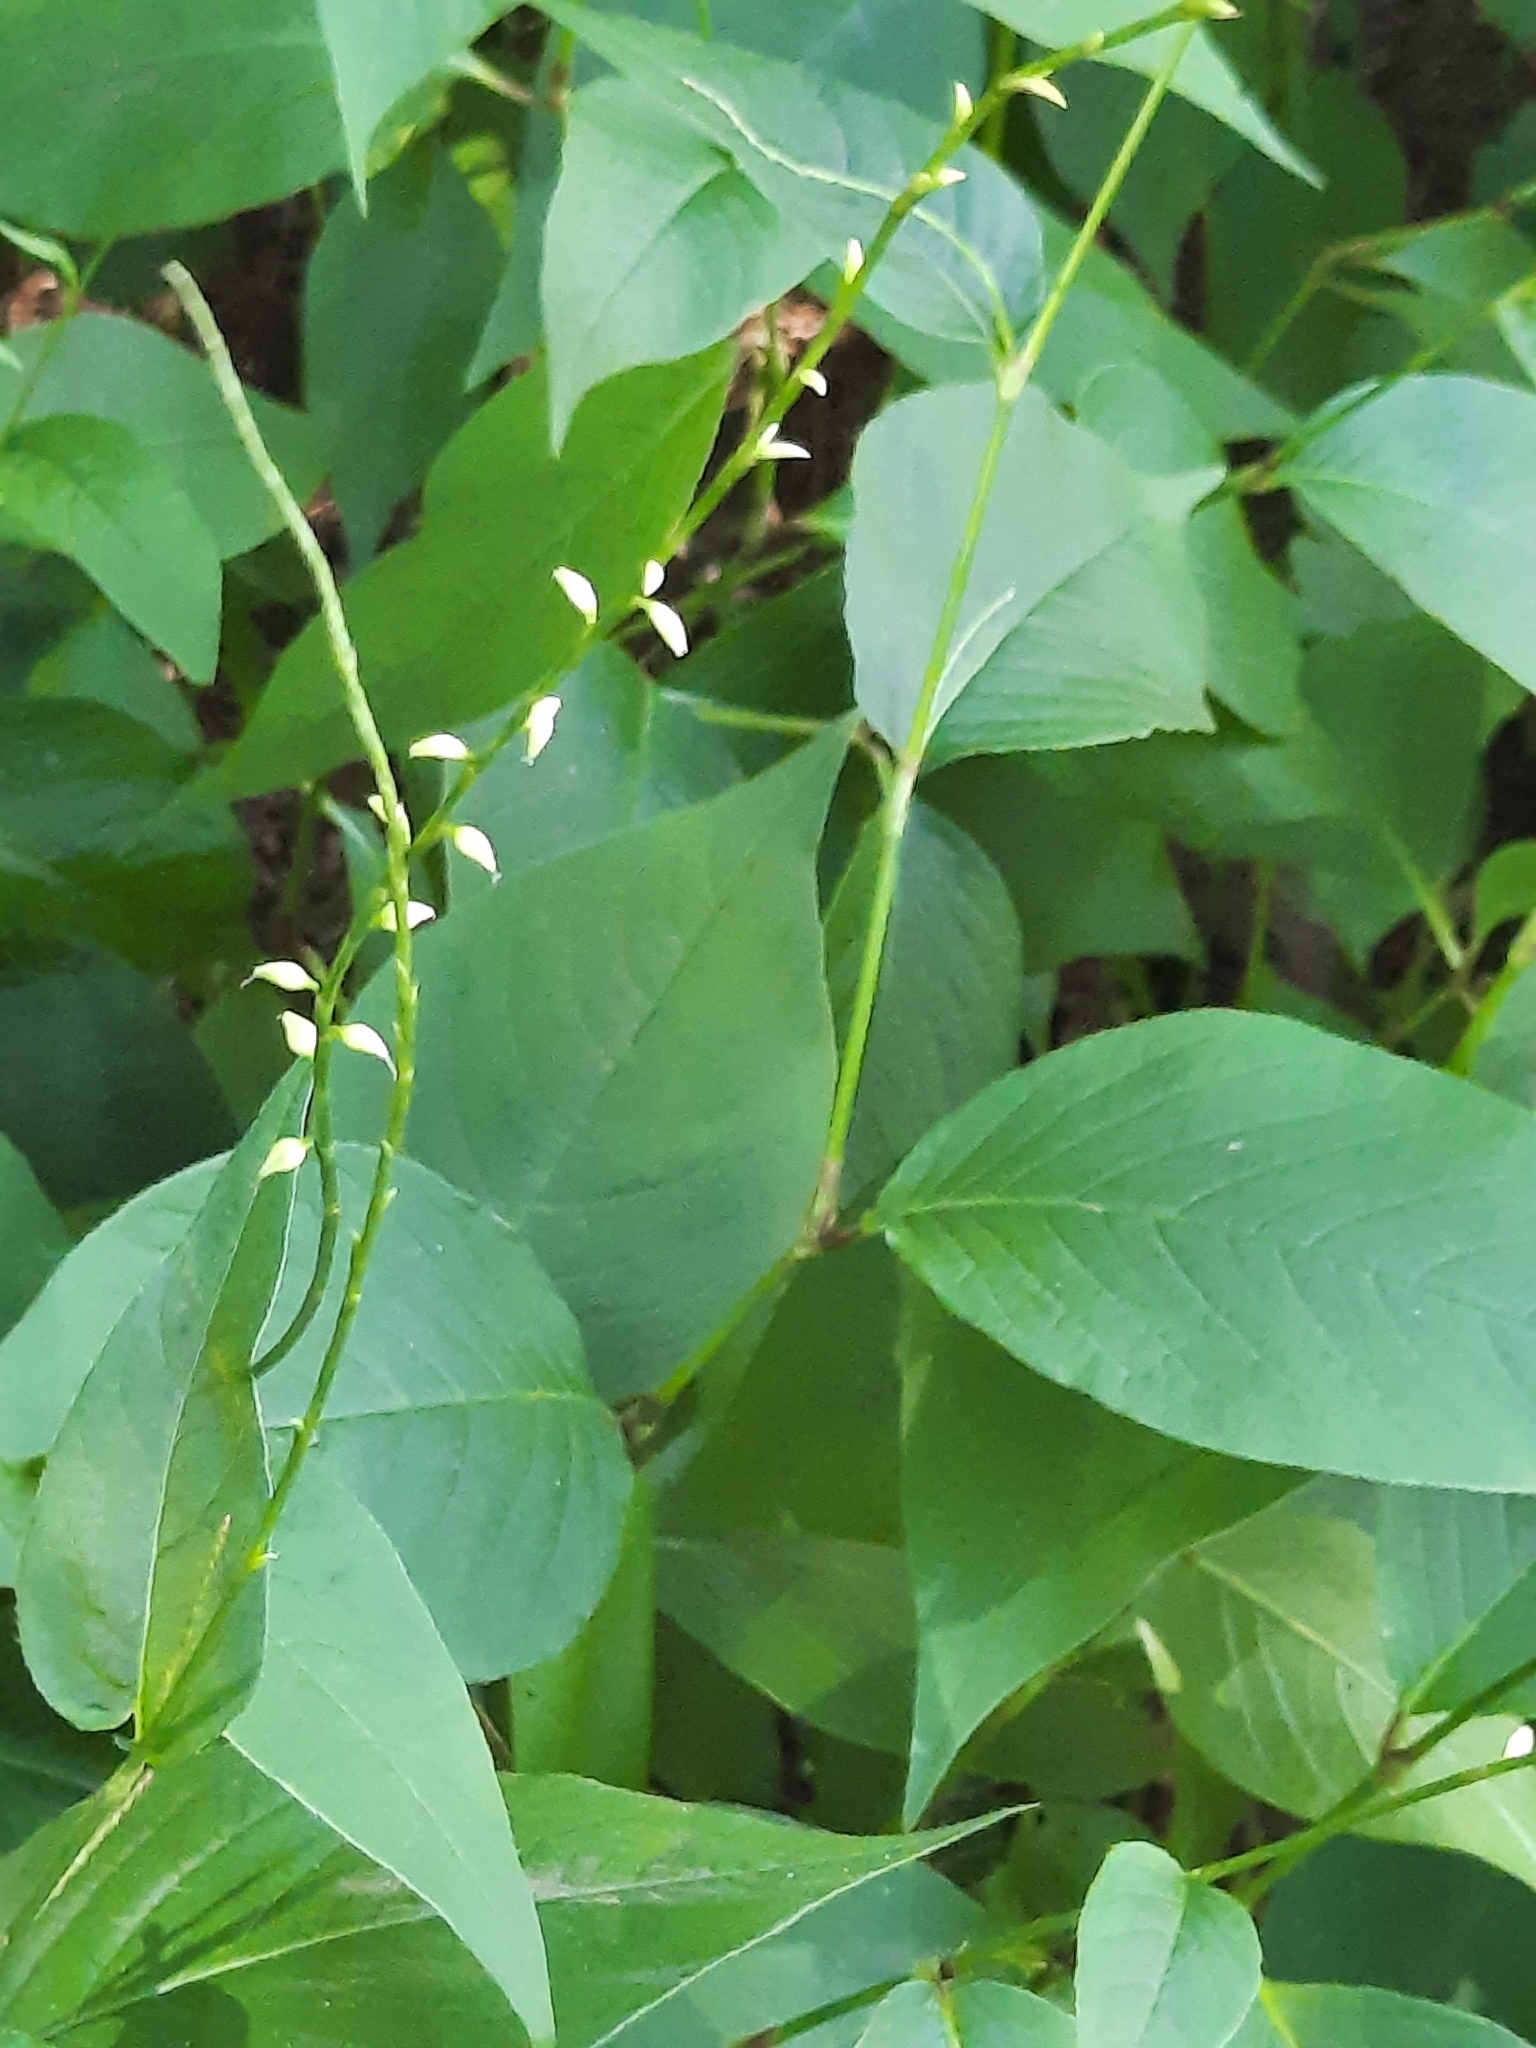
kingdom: Plantae
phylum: Tracheophyta
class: Magnoliopsida
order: Caryophyllales
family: Polygonaceae
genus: Persicaria
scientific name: Persicaria virginiana
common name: Jumpseed
